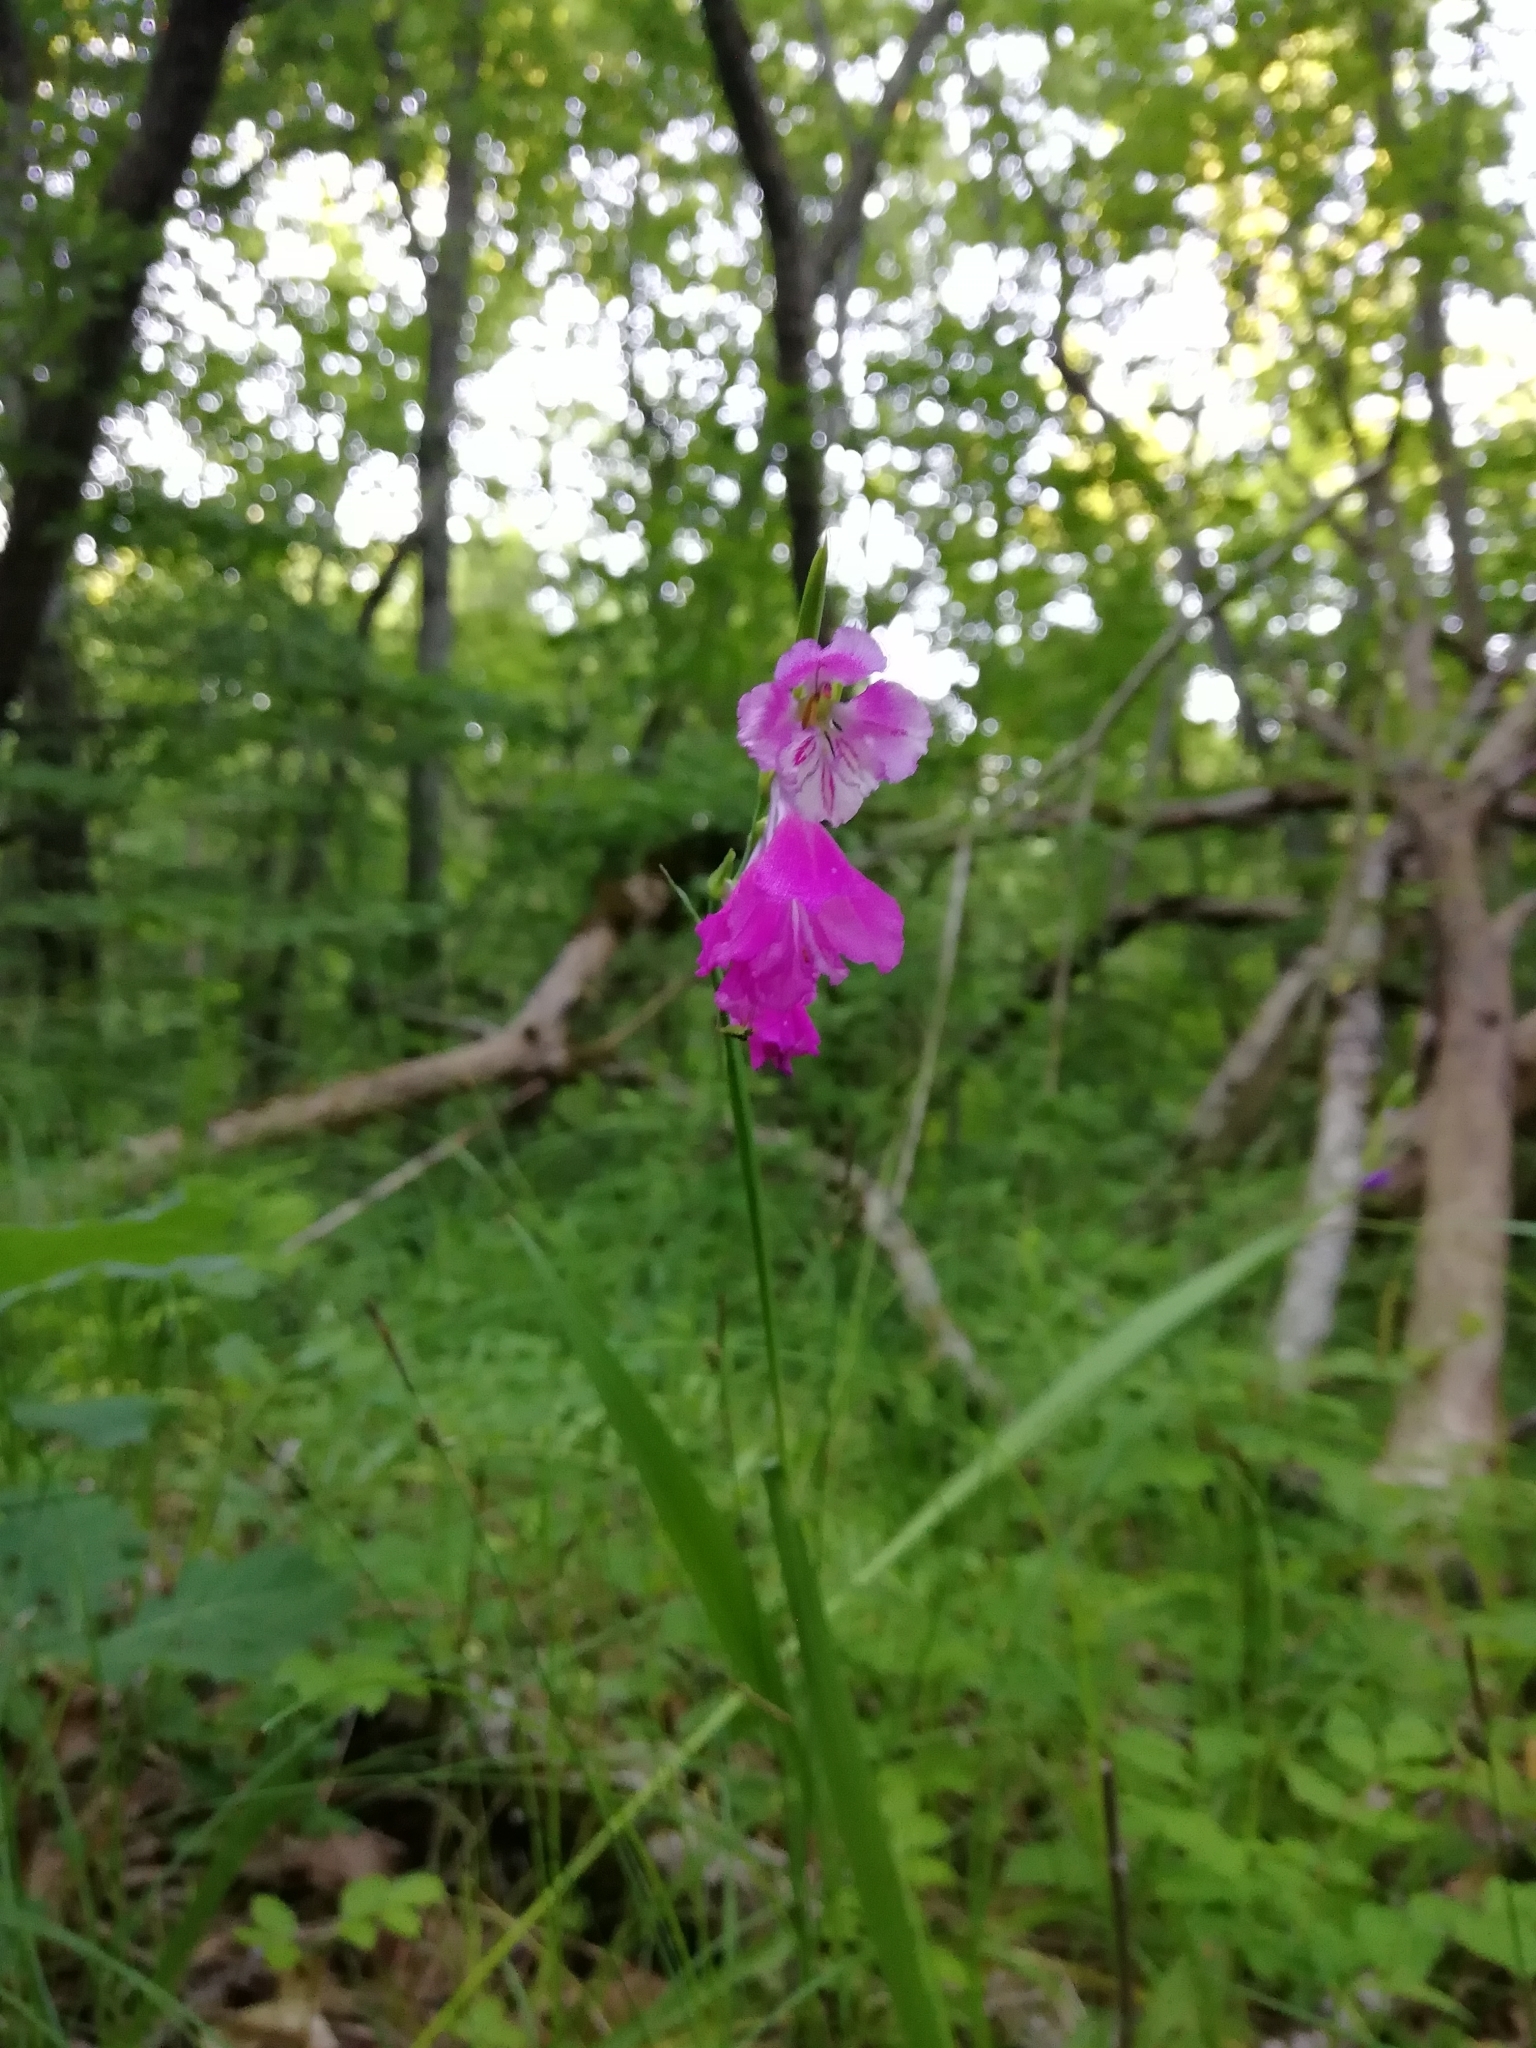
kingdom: Plantae
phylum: Tracheophyta
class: Liliopsida
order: Asparagales
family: Iridaceae
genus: Gladiolus
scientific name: Gladiolus tenuis
